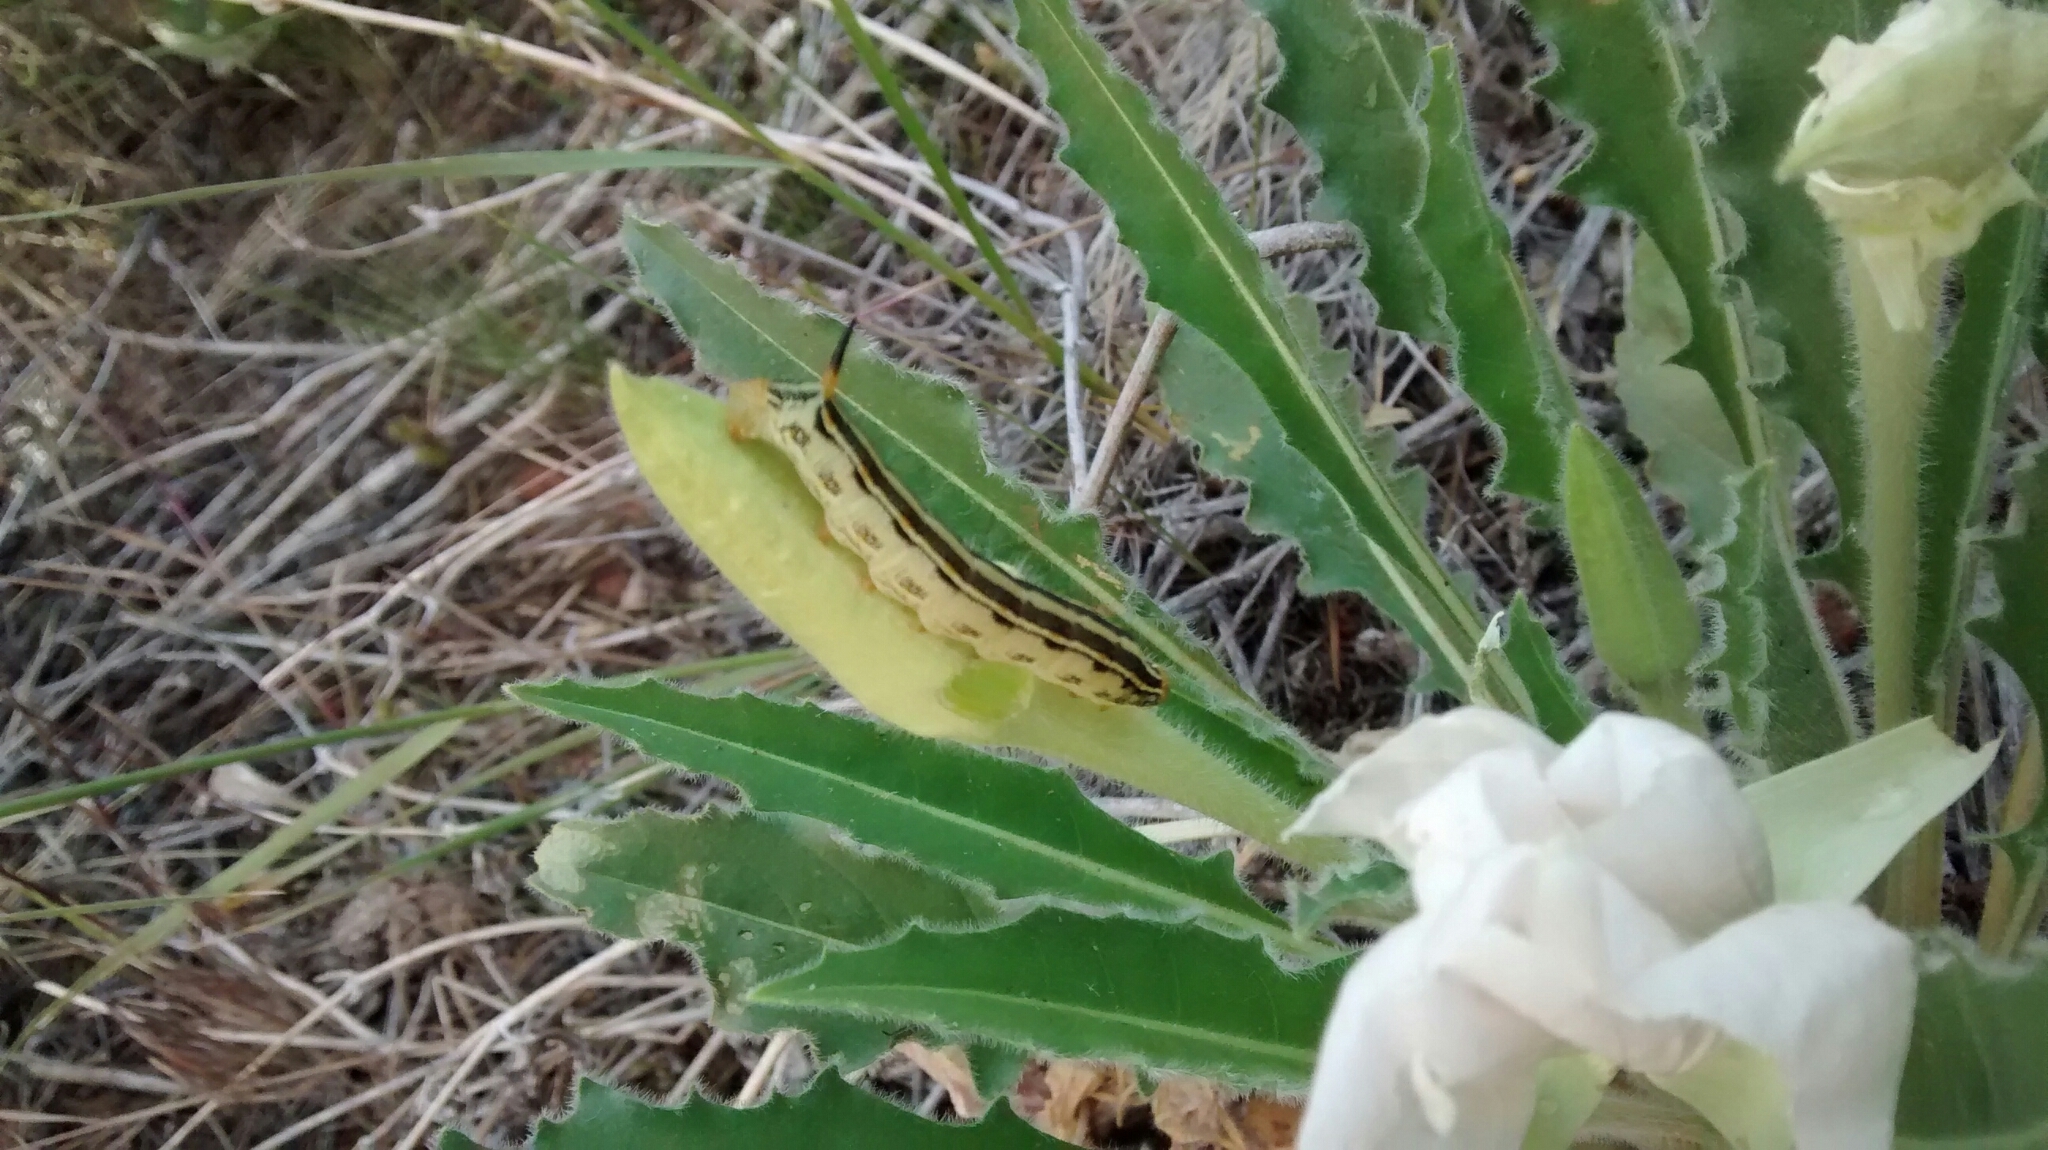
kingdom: Animalia
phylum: Arthropoda
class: Insecta
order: Lepidoptera
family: Sphingidae
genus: Hyles
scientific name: Hyles lineata
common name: White-lined sphinx
